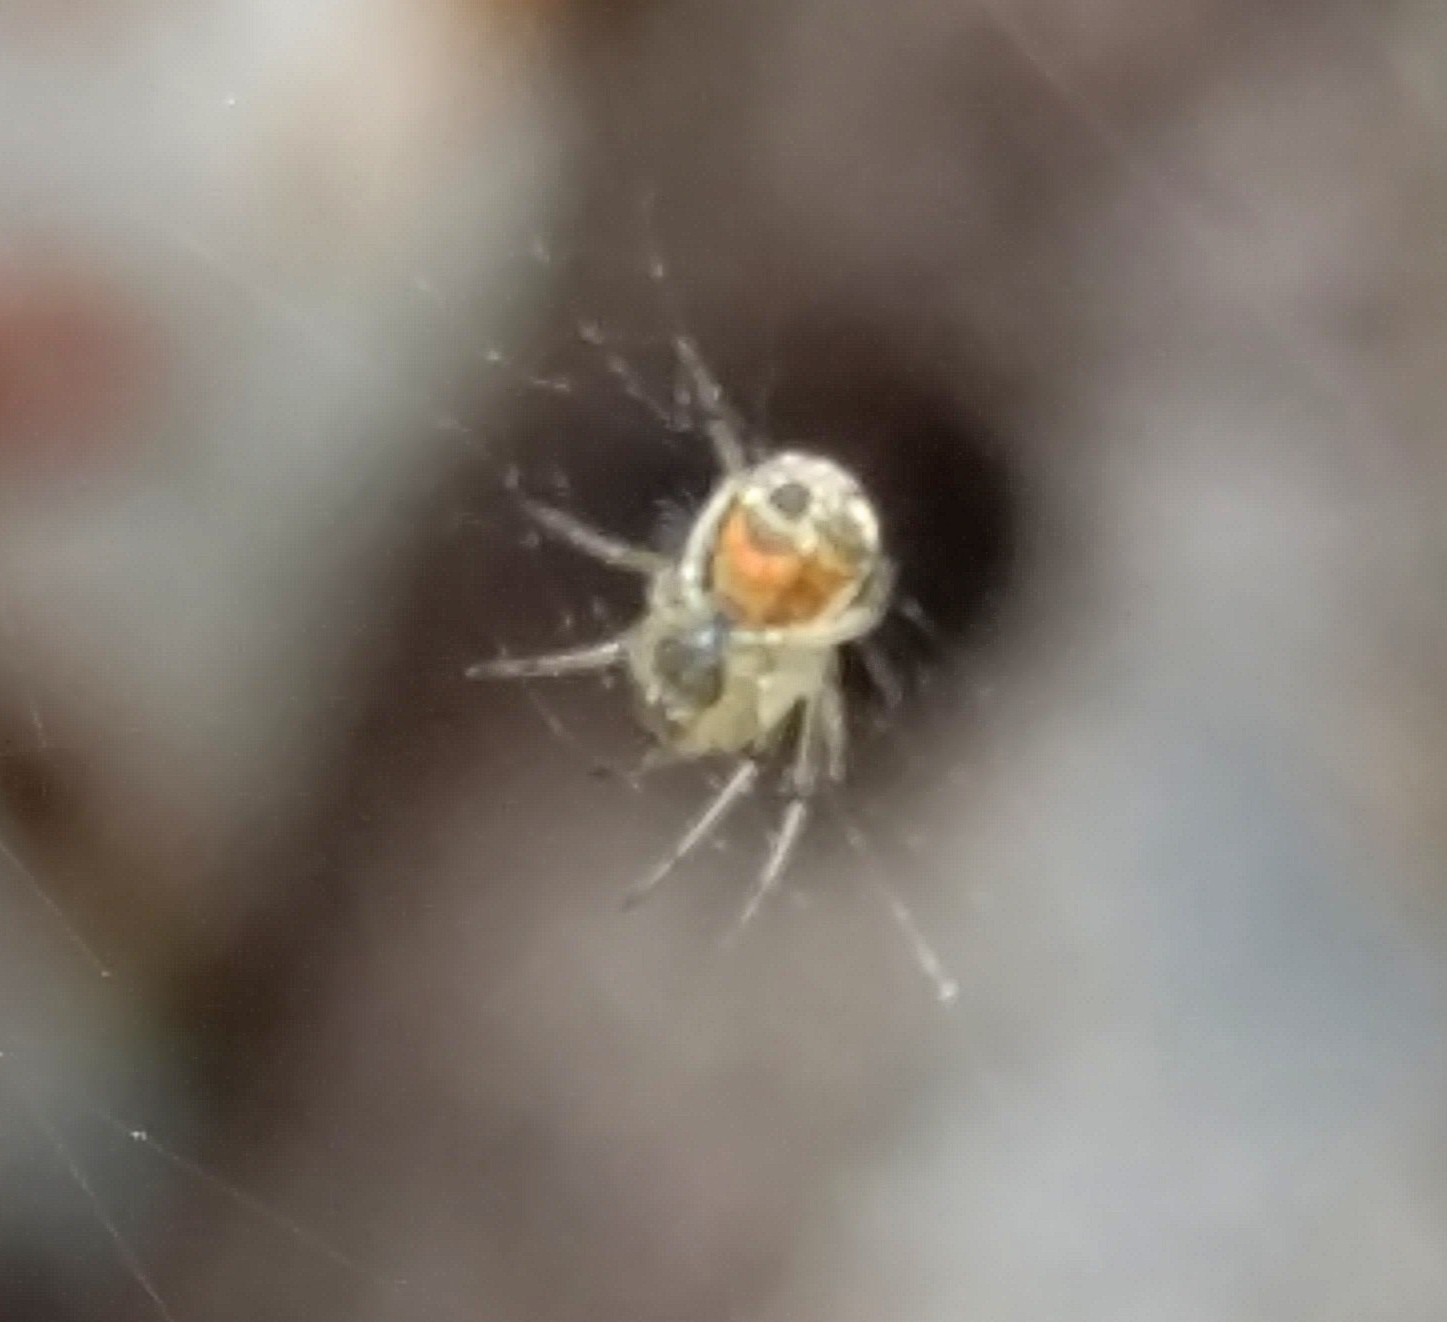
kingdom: Animalia
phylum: Arthropoda
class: Arachnida
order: Araneae
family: Tetragnathidae
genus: Leucauge
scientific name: Leucauge venusta
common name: Longjawed orb weavers
